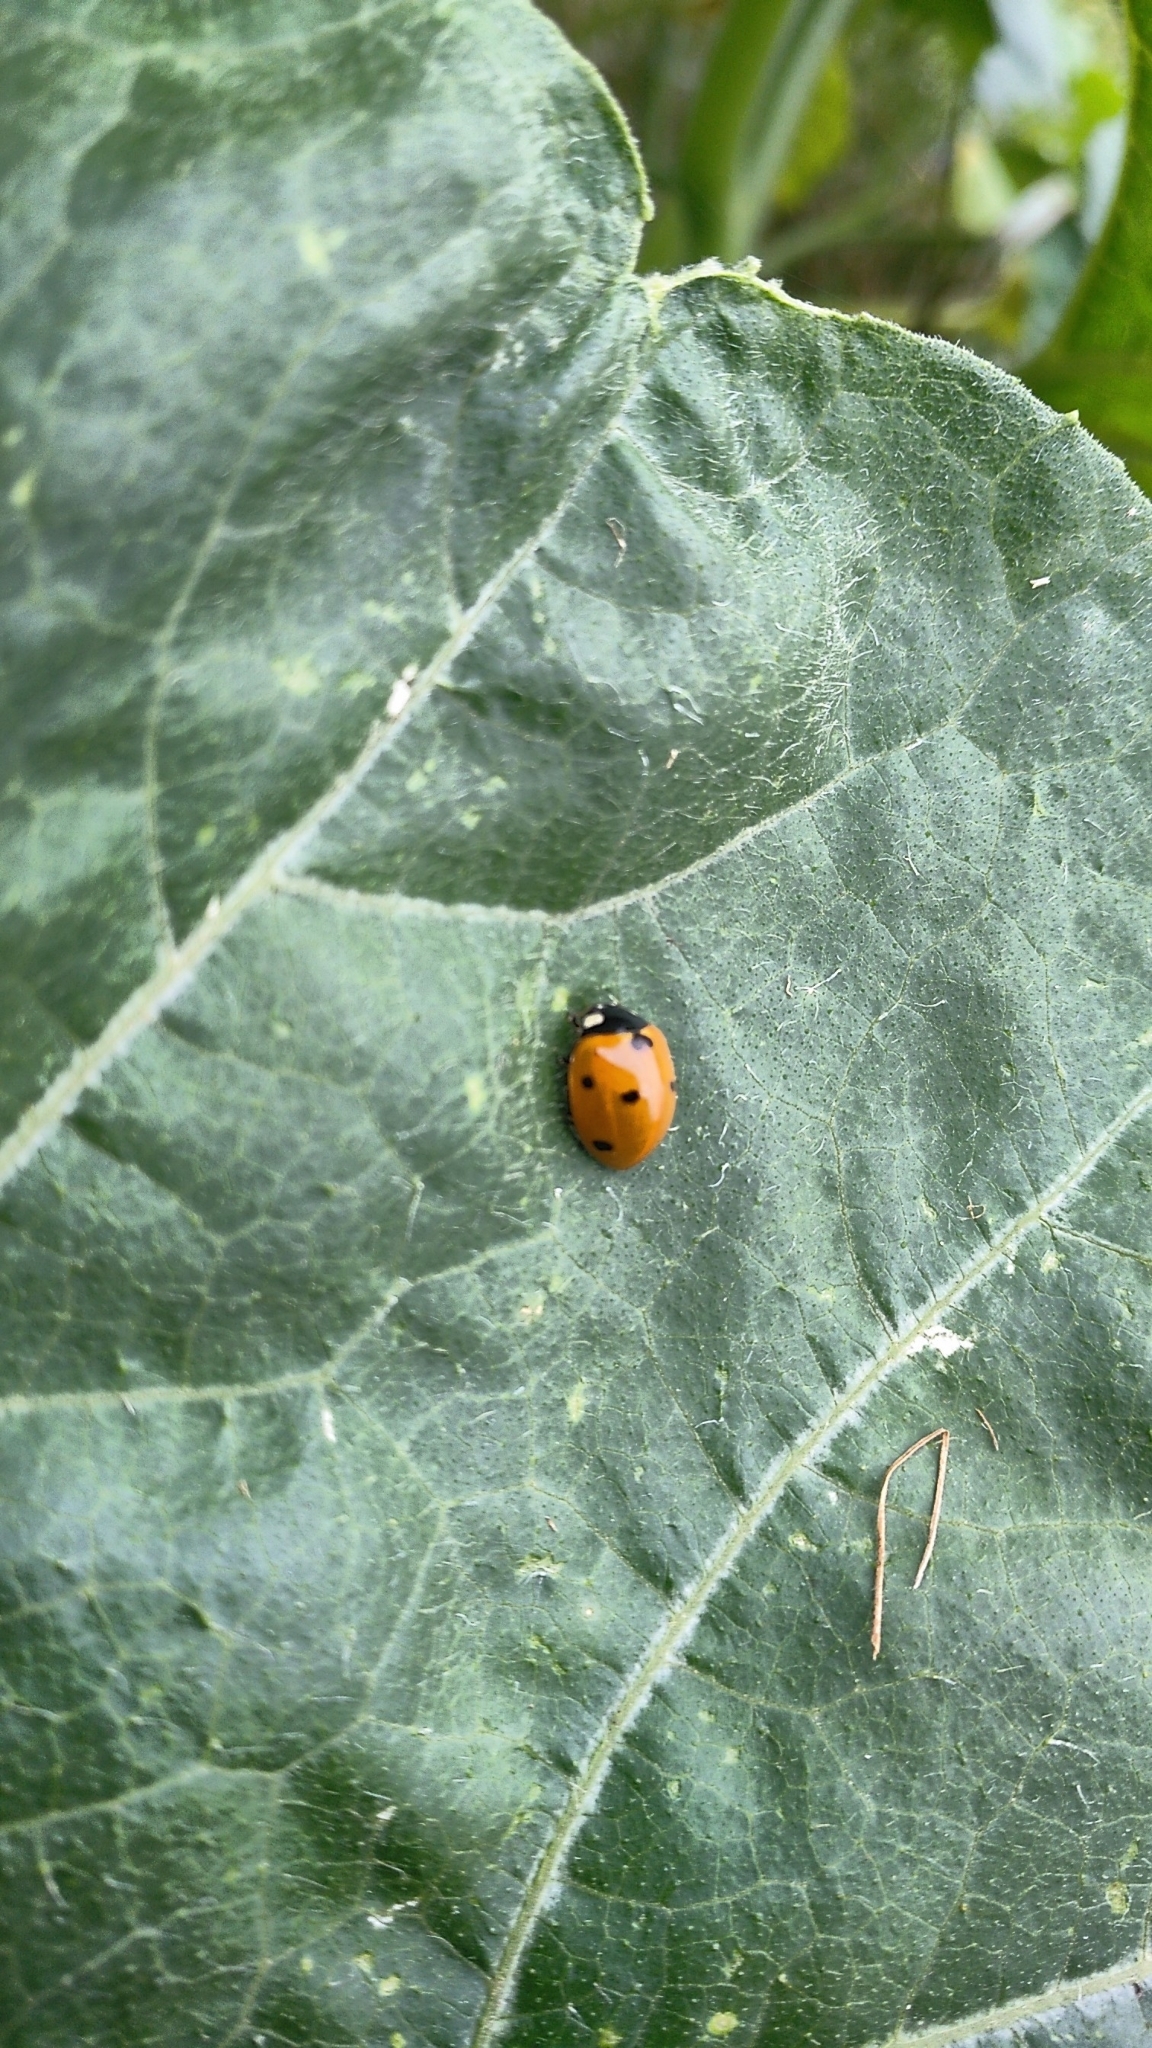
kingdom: Animalia
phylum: Arthropoda
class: Insecta
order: Coleoptera
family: Coccinellidae
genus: Coccinella
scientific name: Coccinella septempunctata
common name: Sevenspotted lady beetle
